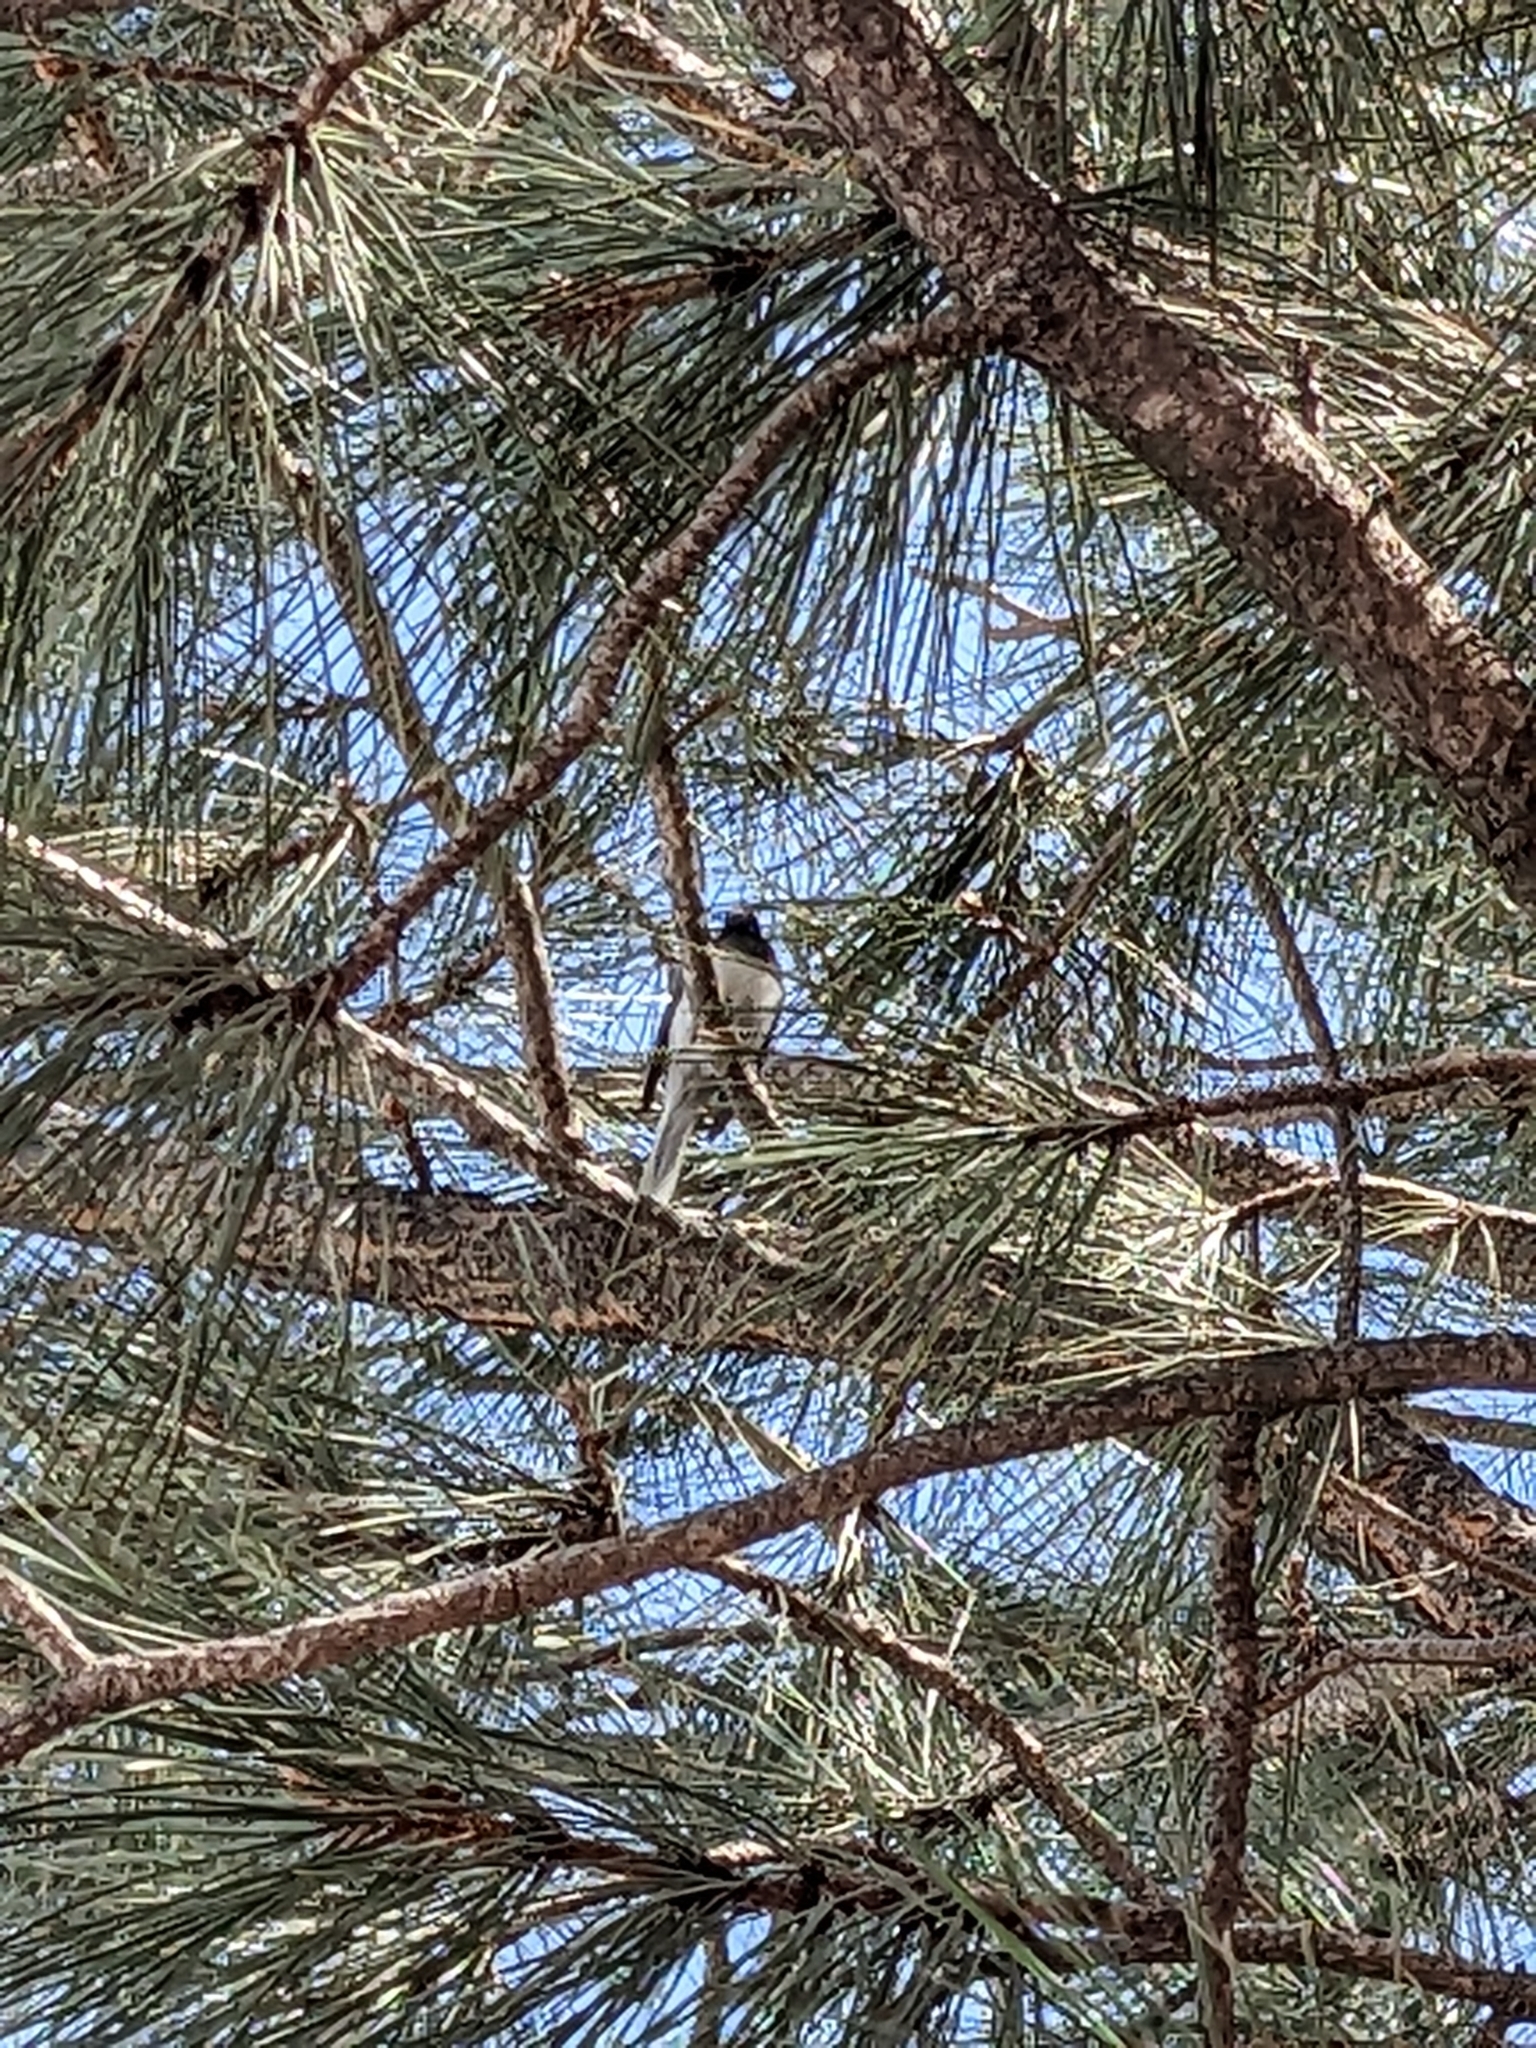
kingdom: Animalia
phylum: Chordata
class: Aves
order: Passeriformes
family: Passerellidae
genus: Junco
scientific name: Junco hyemalis
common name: Dark-eyed junco
